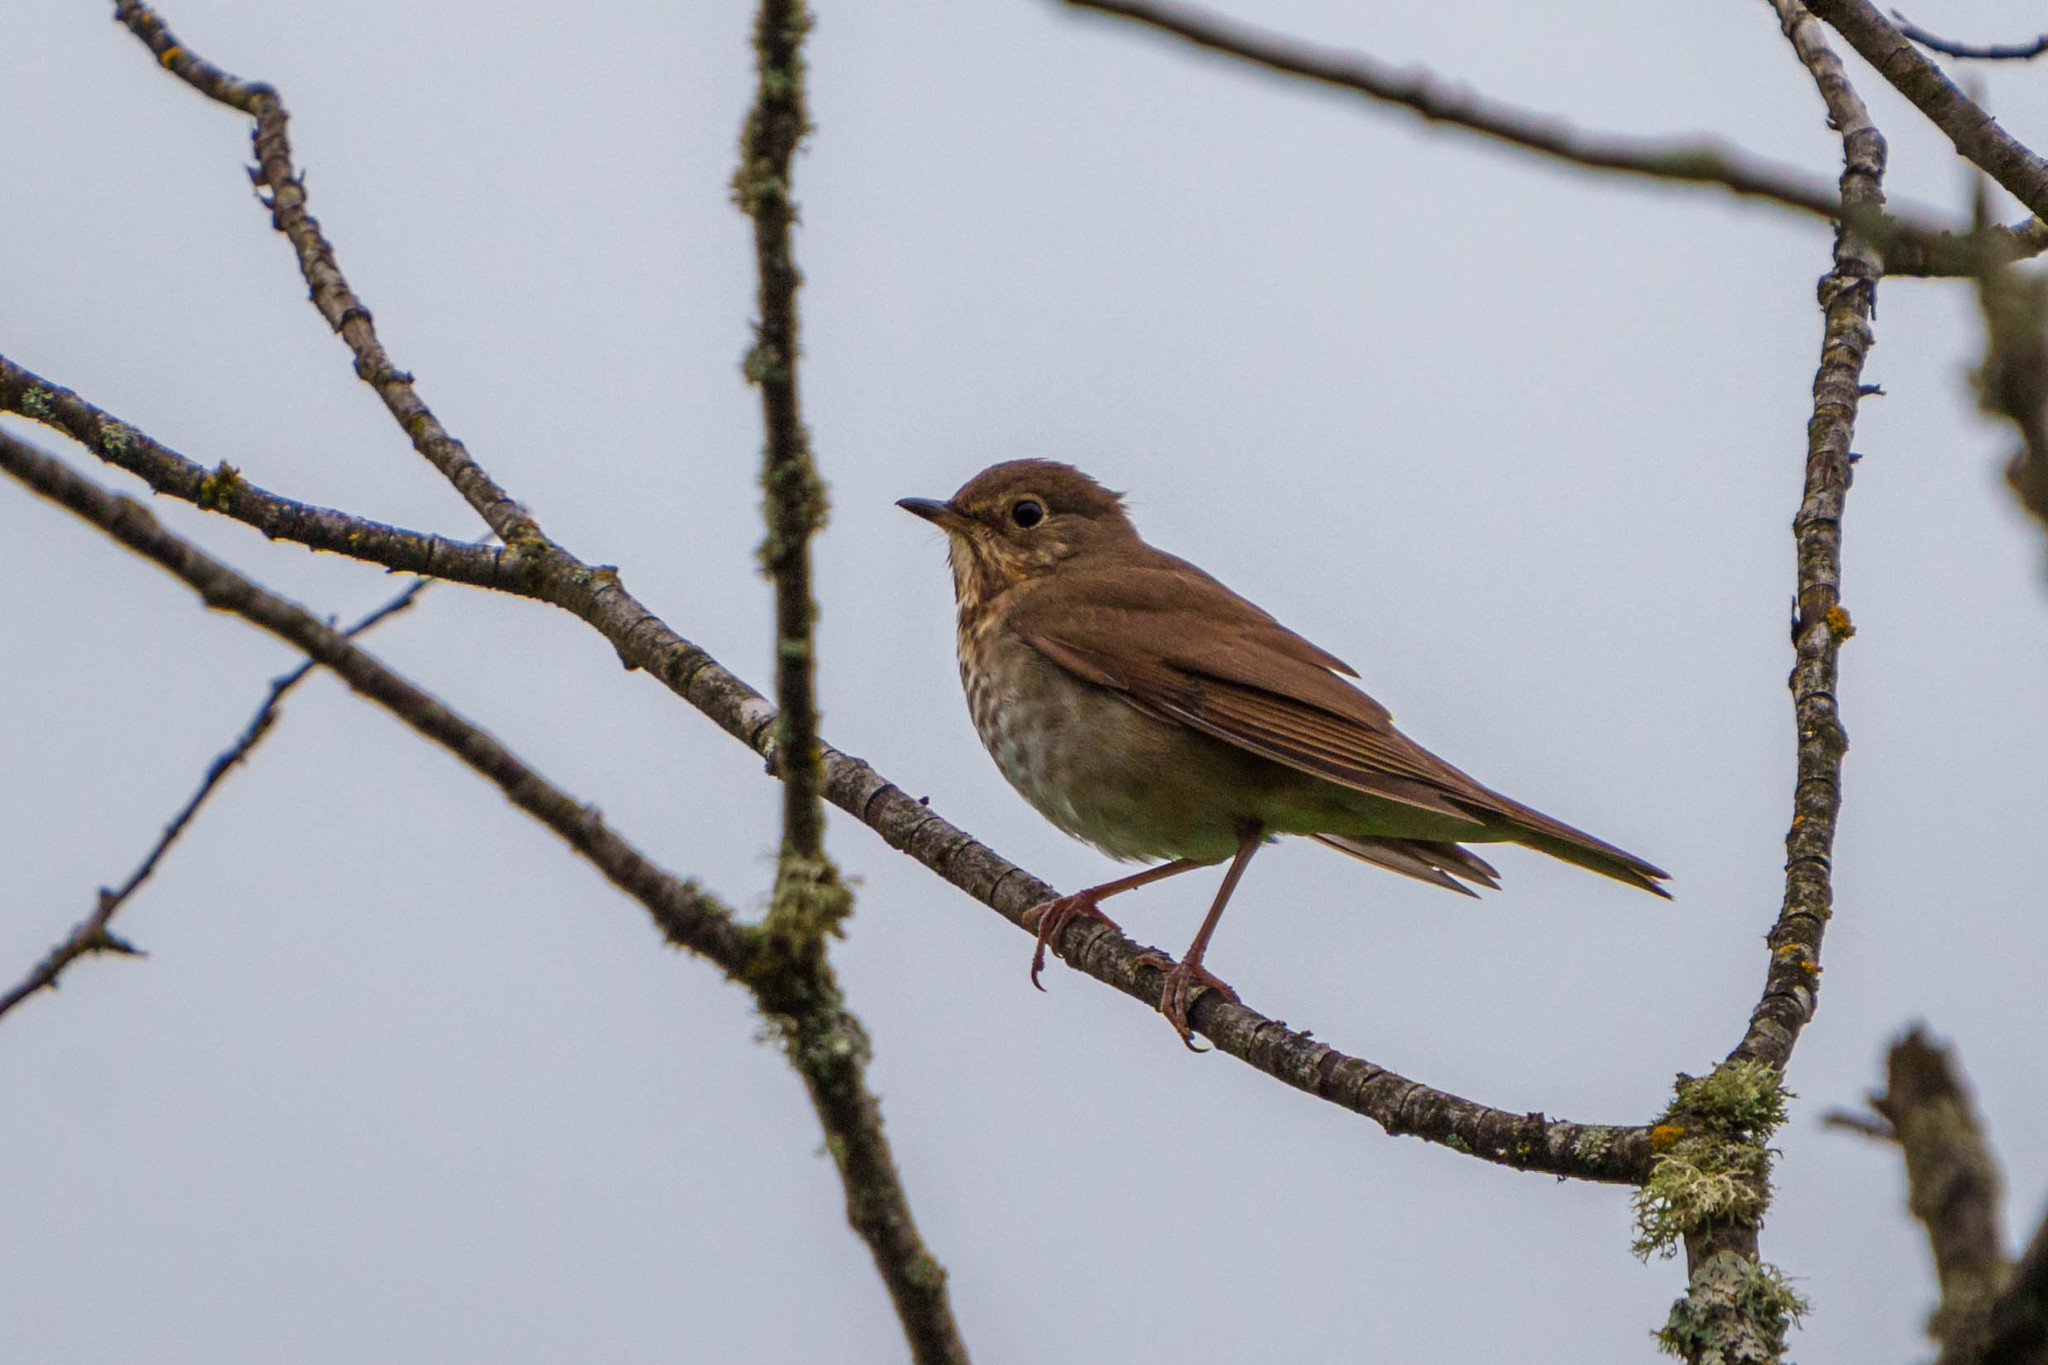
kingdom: Animalia
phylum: Chordata
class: Aves
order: Passeriformes
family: Turdidae
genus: Catharus
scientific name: Catharus ustulatus
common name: Swainson's thrush
